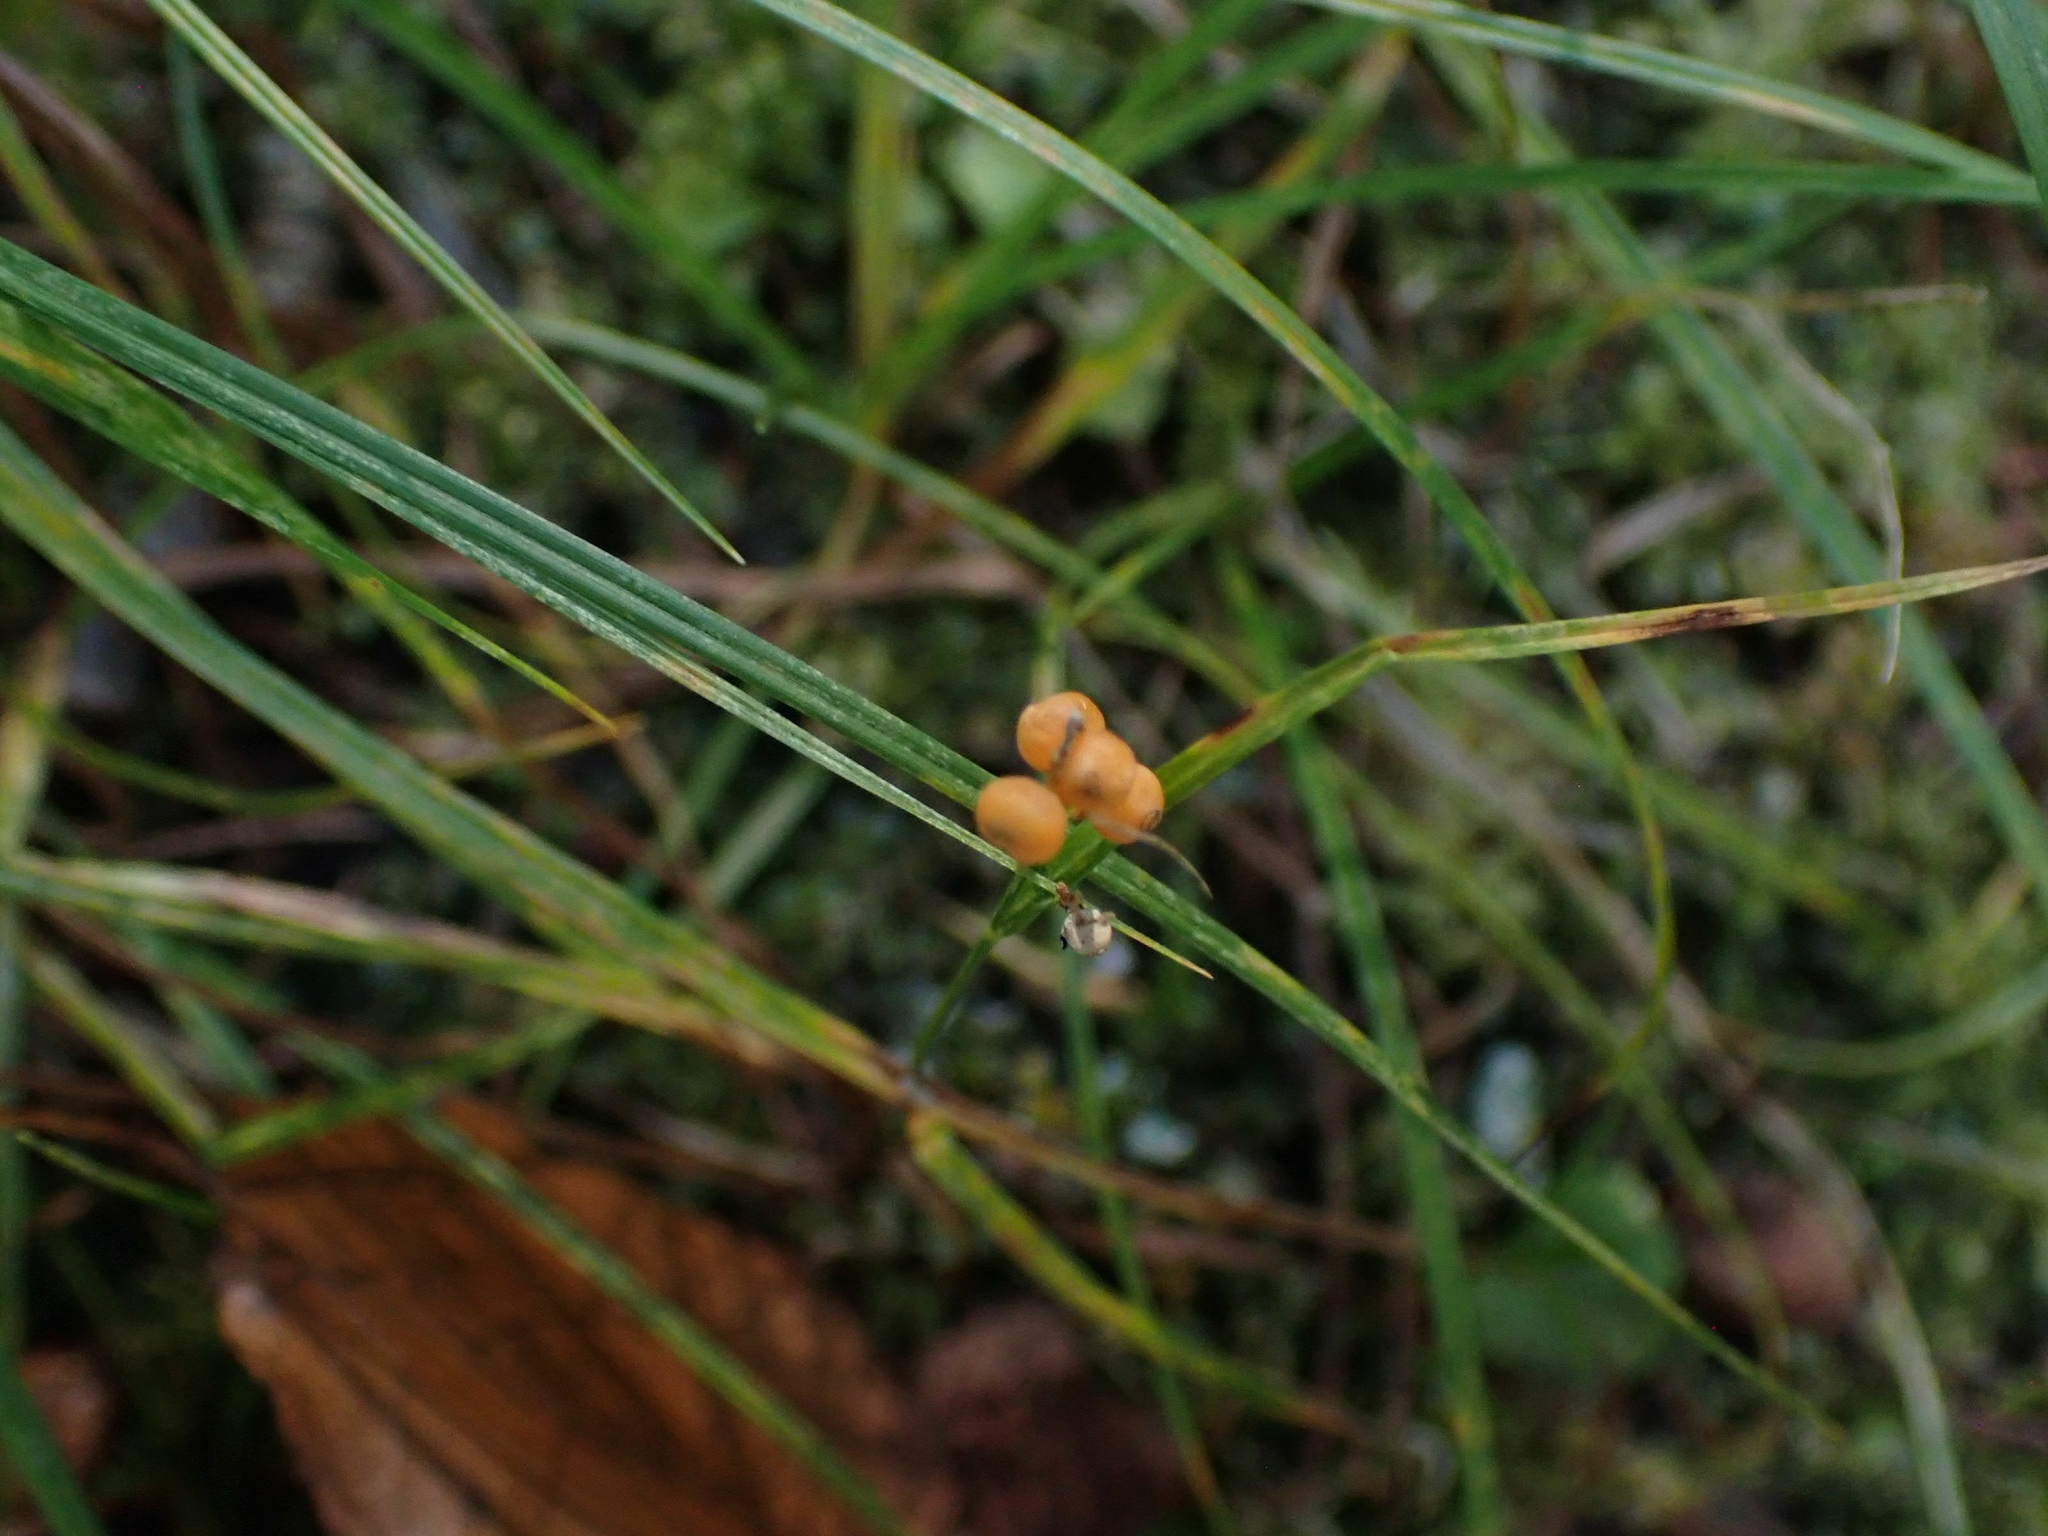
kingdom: Plantae
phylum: Tracheophyta
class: Liliopsida
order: Poales
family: Cyperaceae
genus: Carex
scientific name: Carex aurea
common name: Golden sedge
